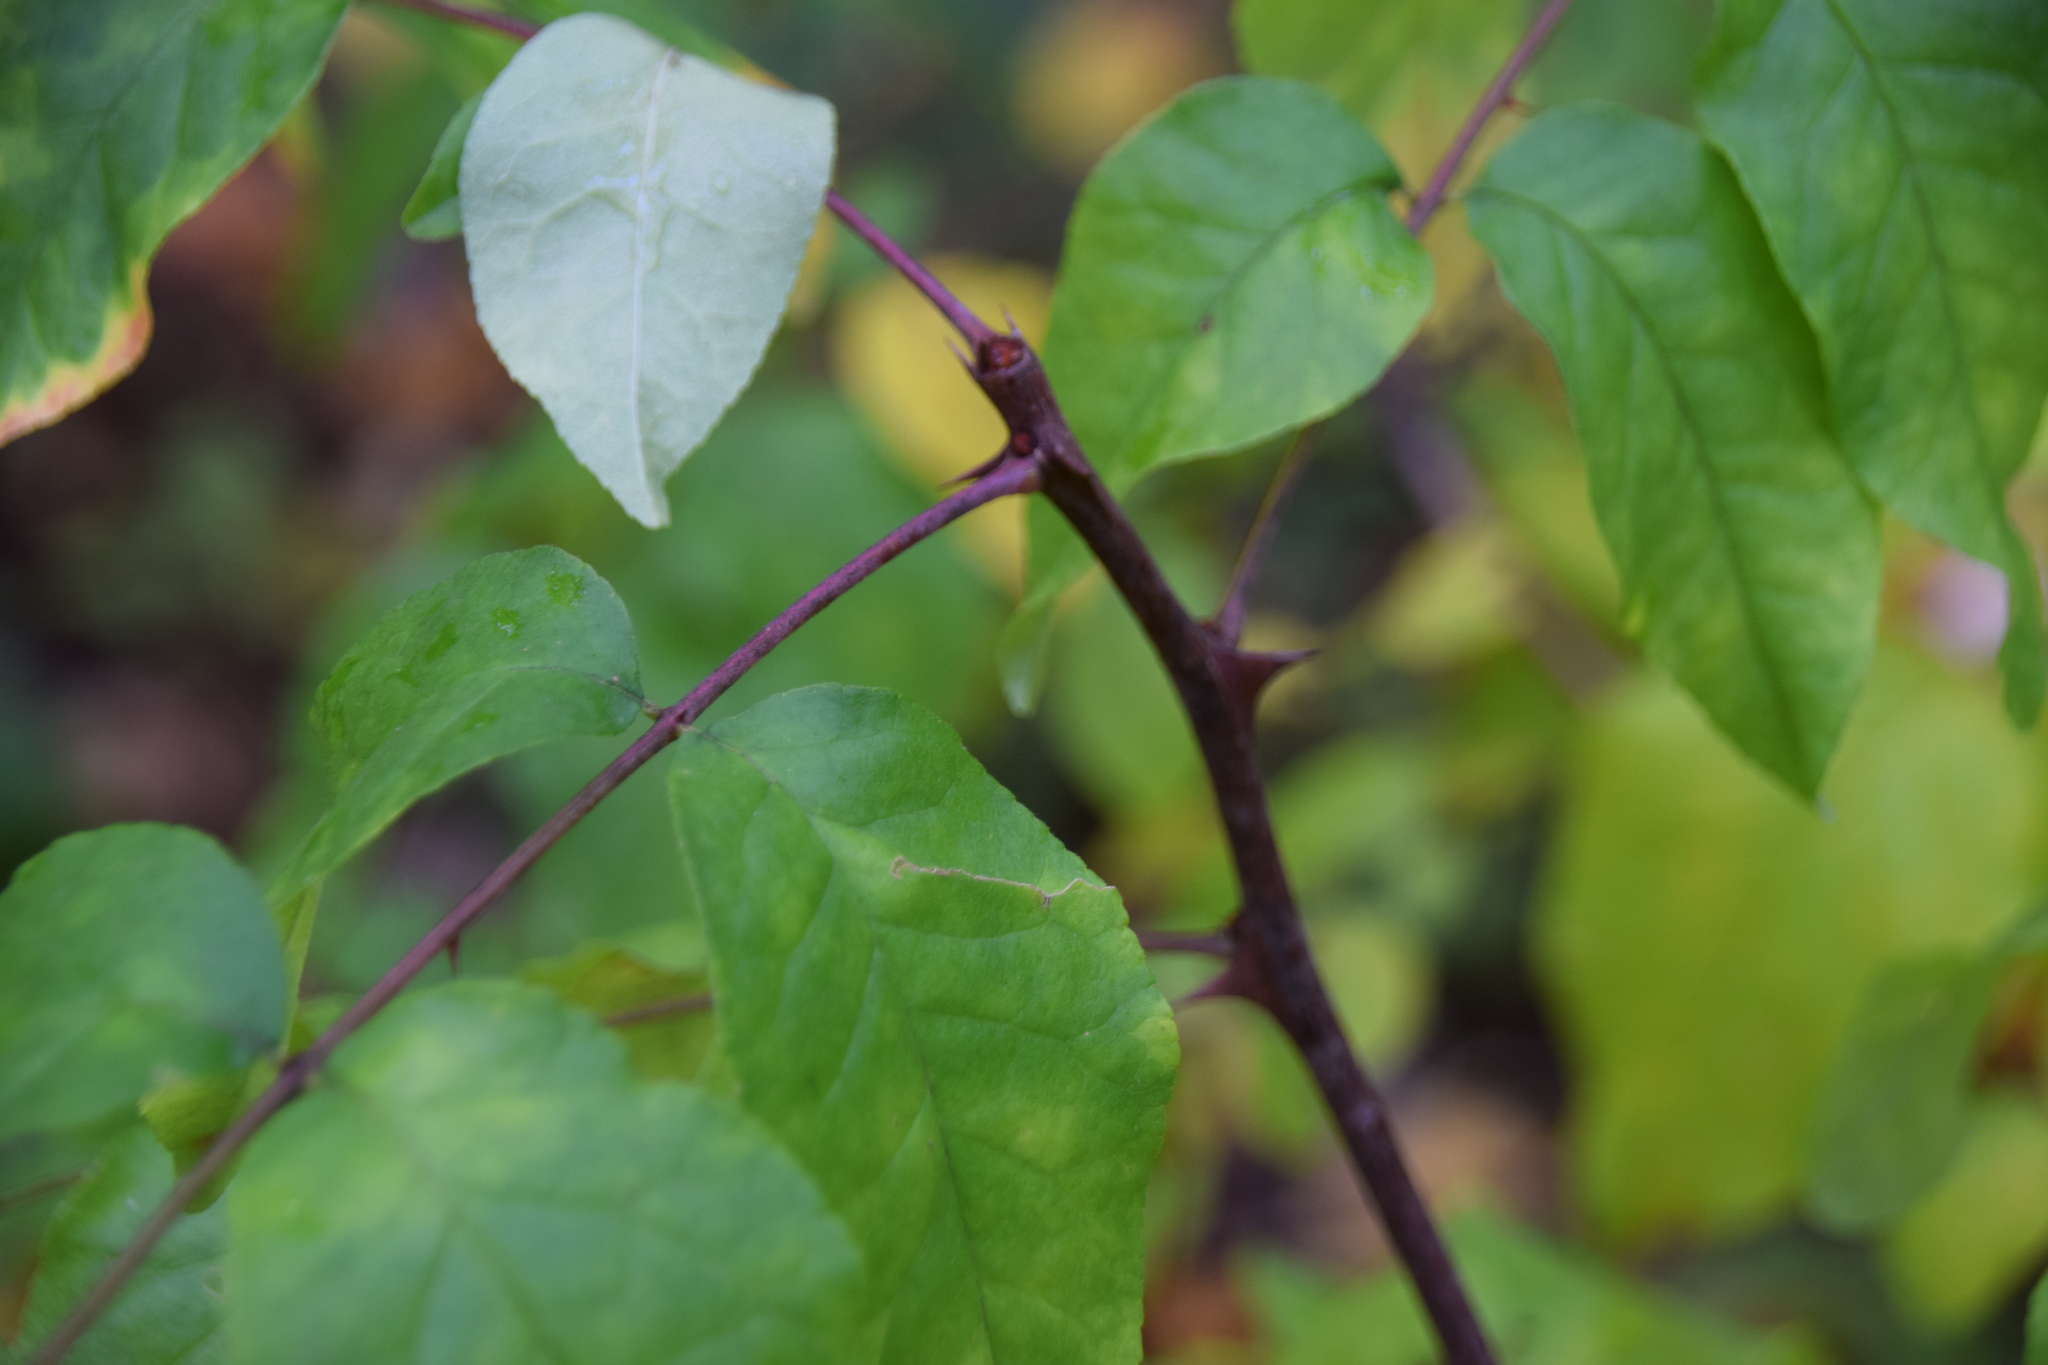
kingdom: Plantae
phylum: Tracheophyta
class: Magnoliopsida
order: Sapindales
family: Rutaceae
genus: Zanthoxylum
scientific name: Zanthoxylum americanum
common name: Northern prickly-ash
